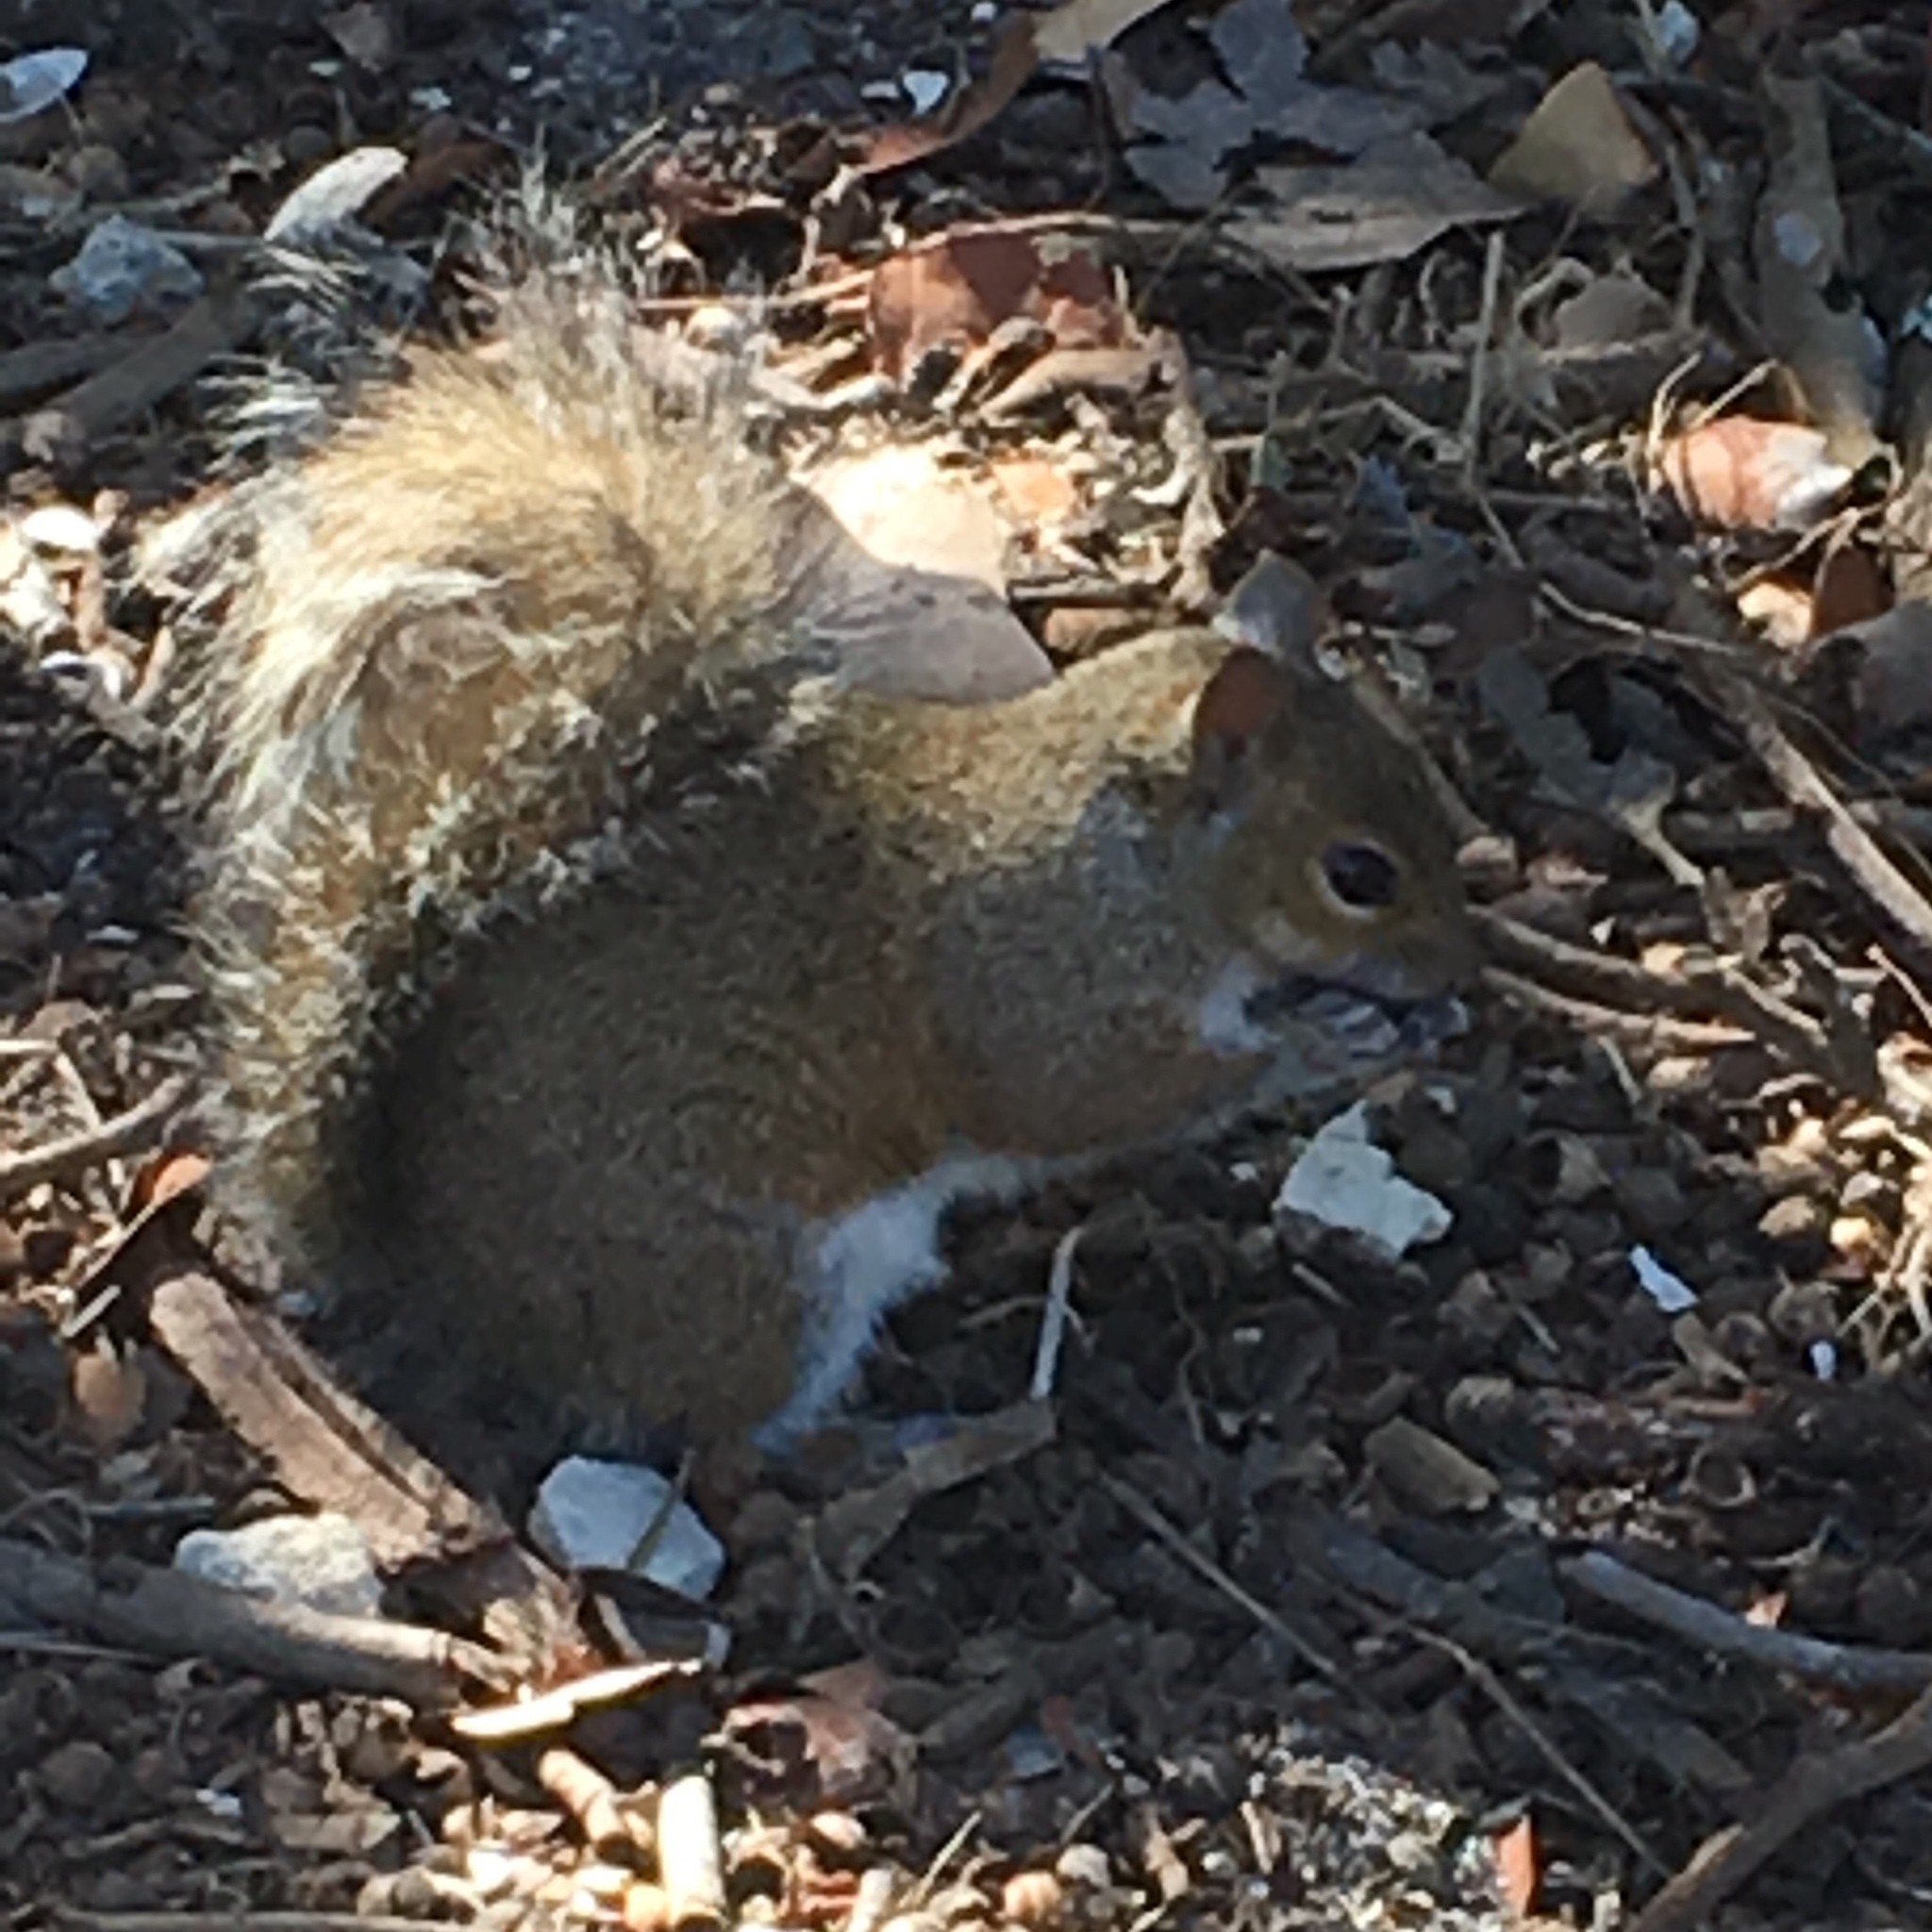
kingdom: Animalia
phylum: Chordata
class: Mammalia
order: Rodentia
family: Sciuridae
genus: Sciurus
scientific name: Sciurus carolinensis
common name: Eastern gray squirrel
